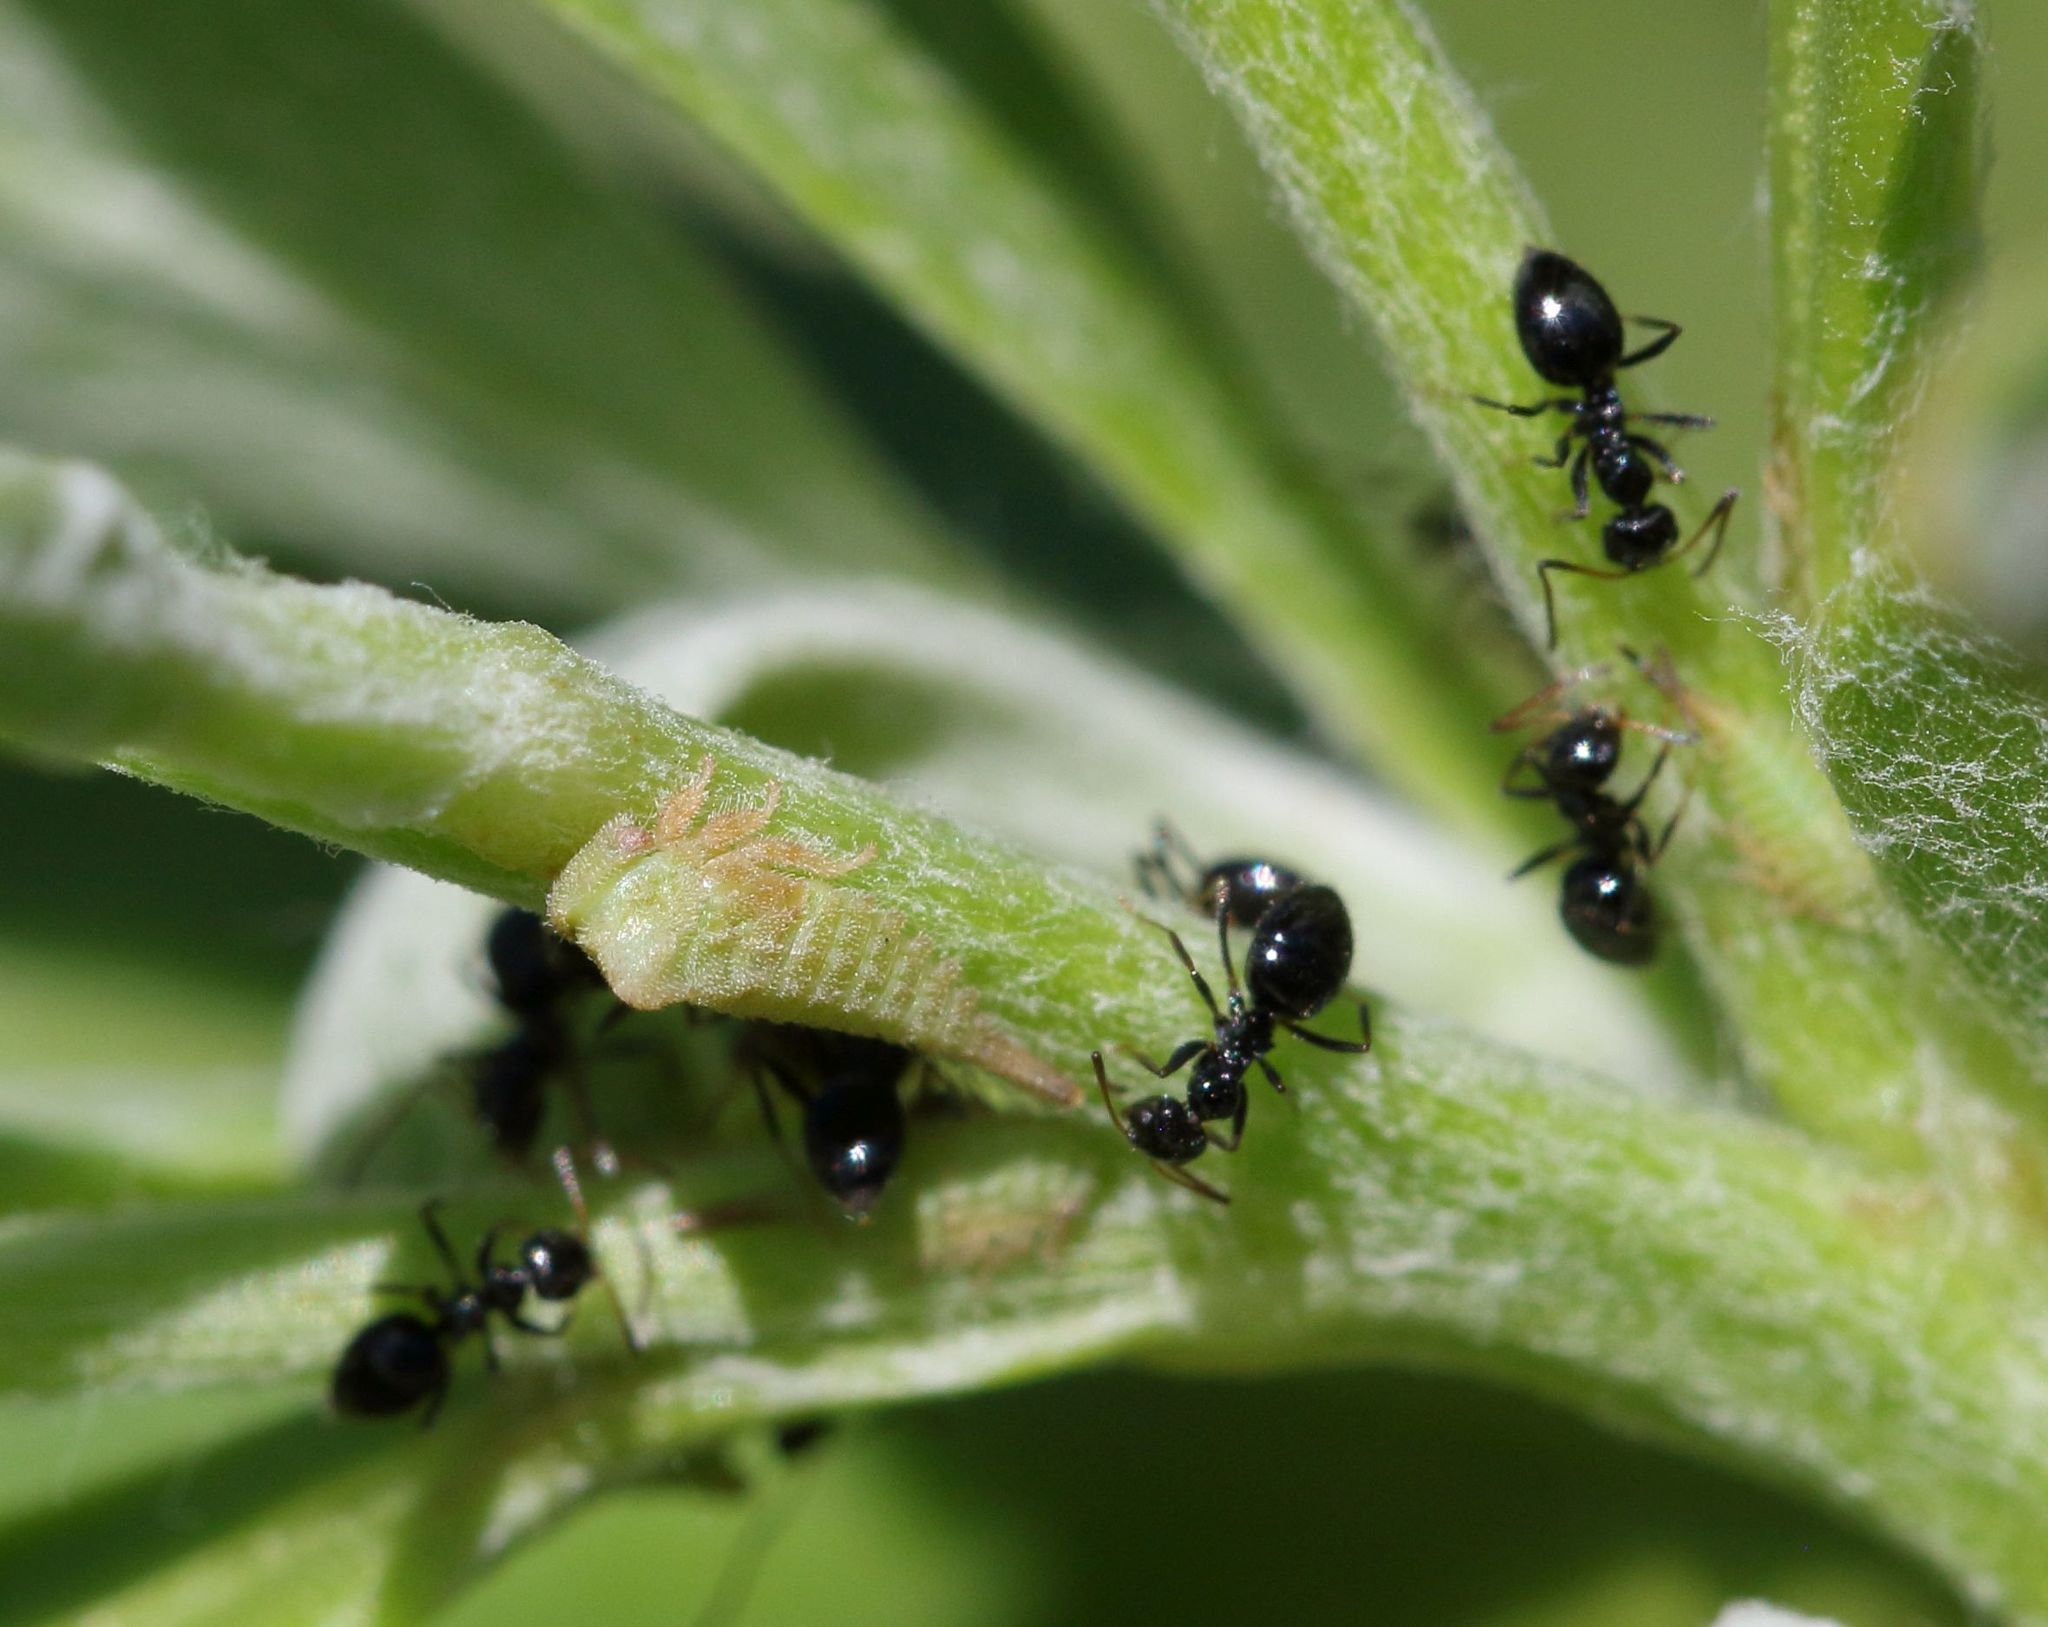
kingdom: Animalia
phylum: Arthropoda
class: Insecta
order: Hymenoptera
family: Formicidae
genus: Lepisiota
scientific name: Lepisiota capensis
